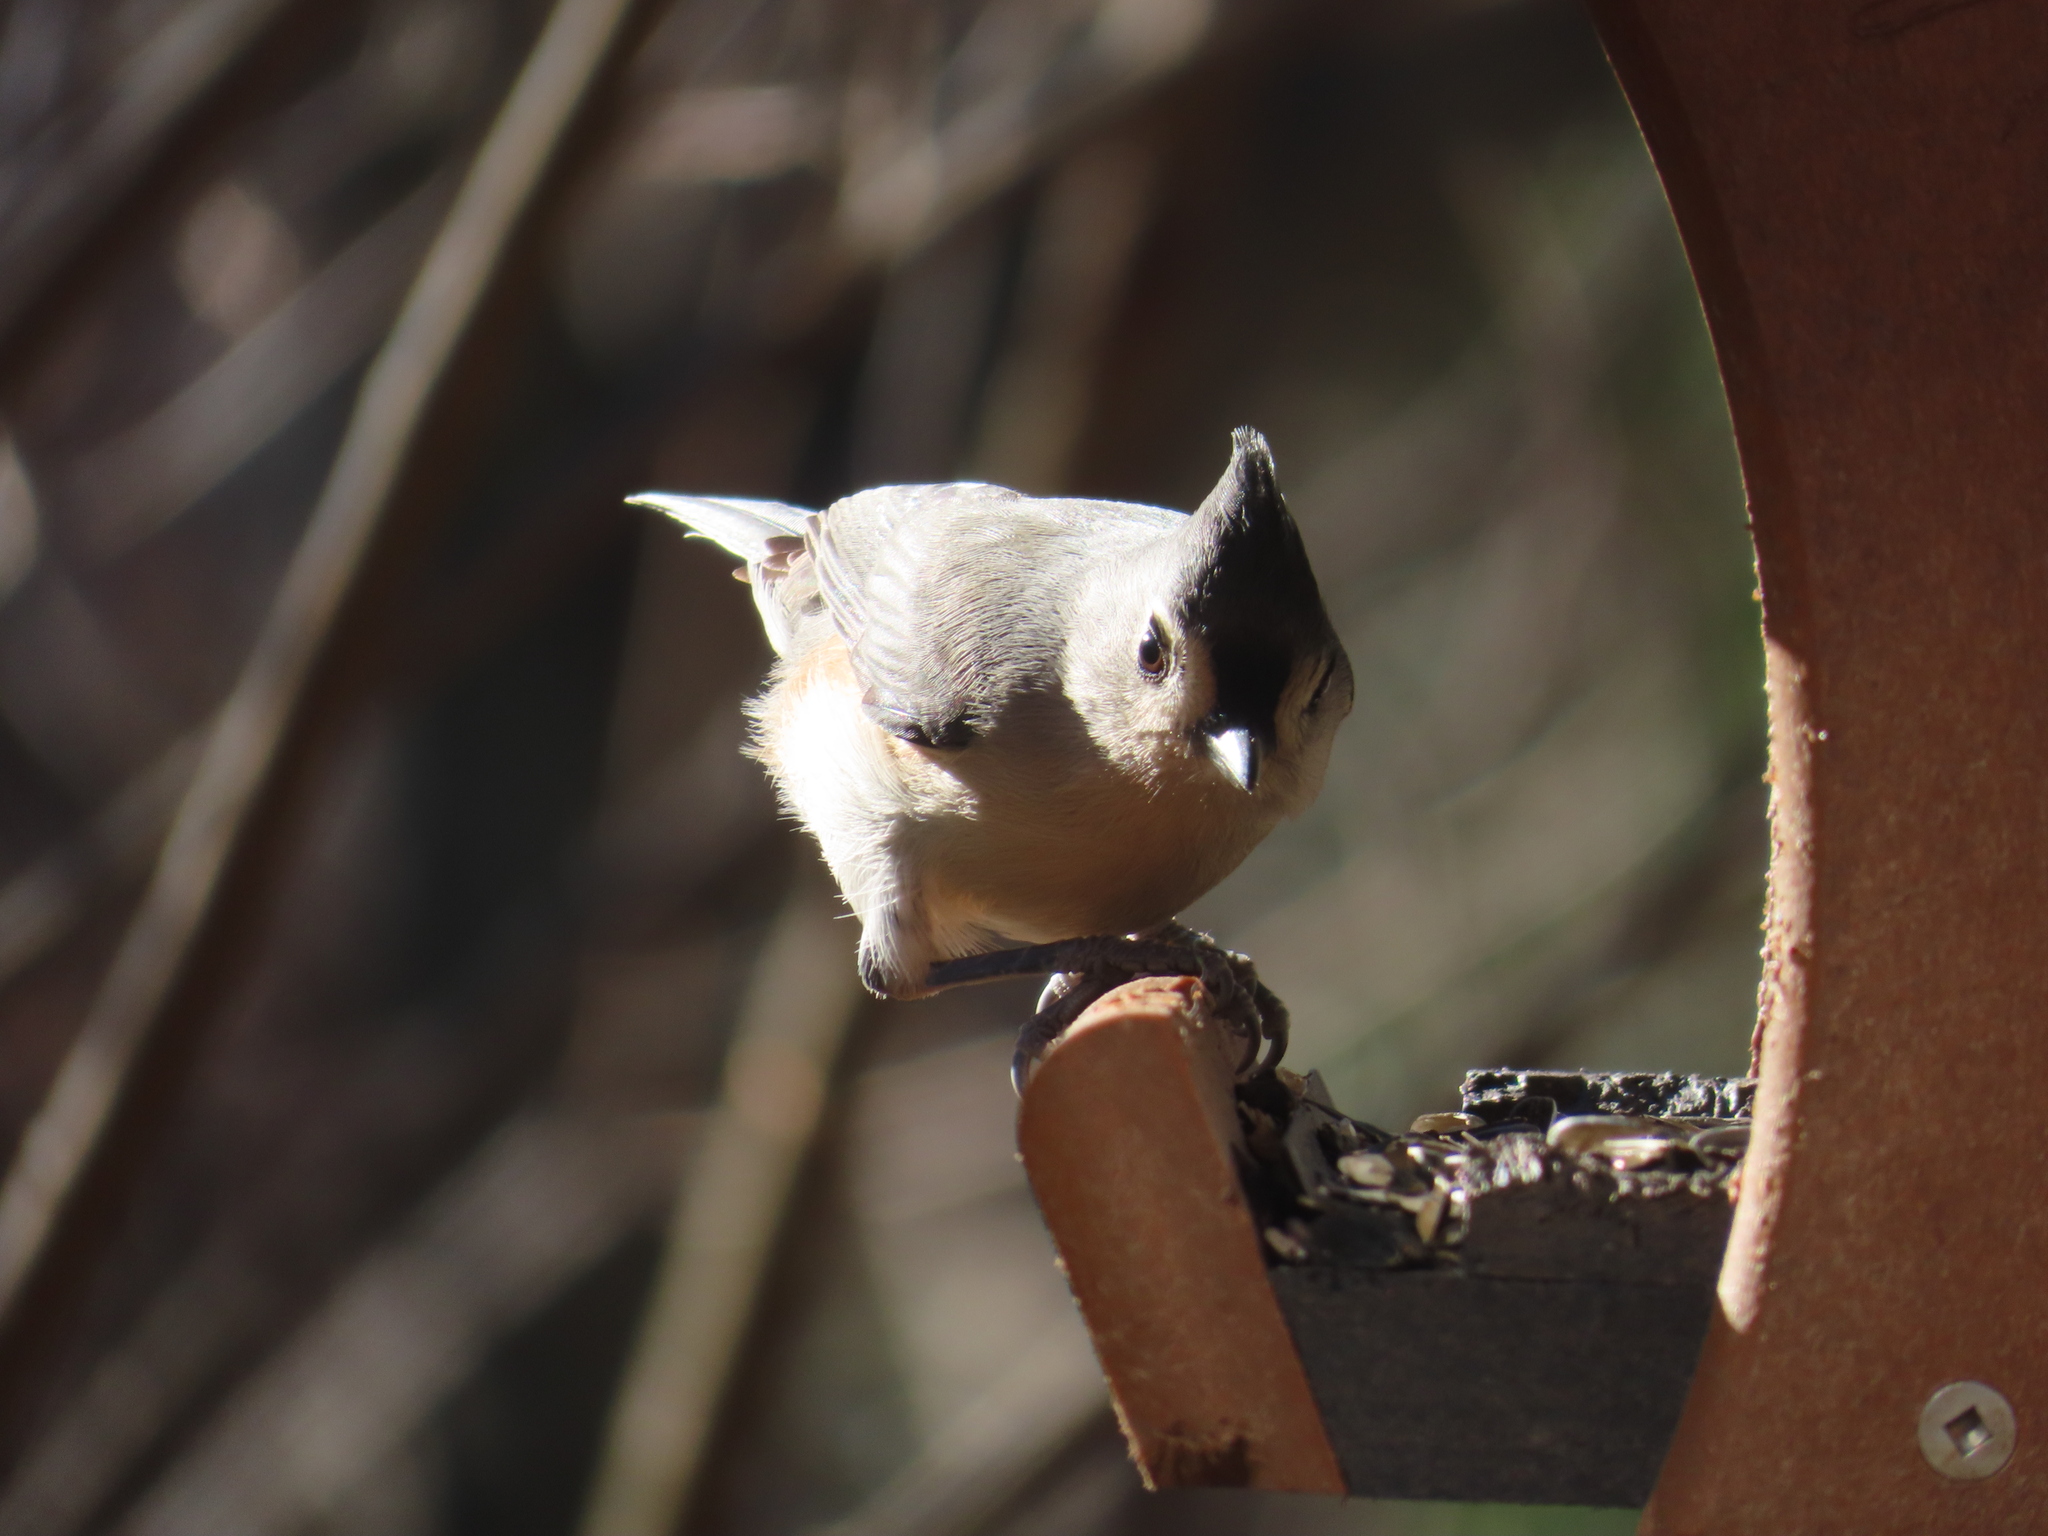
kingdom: Animalia
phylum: Chordata
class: Aves
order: Passeriformes
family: Paridae
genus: Baeolophus
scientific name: Baeolophus bicolor
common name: Tufted titmouse
